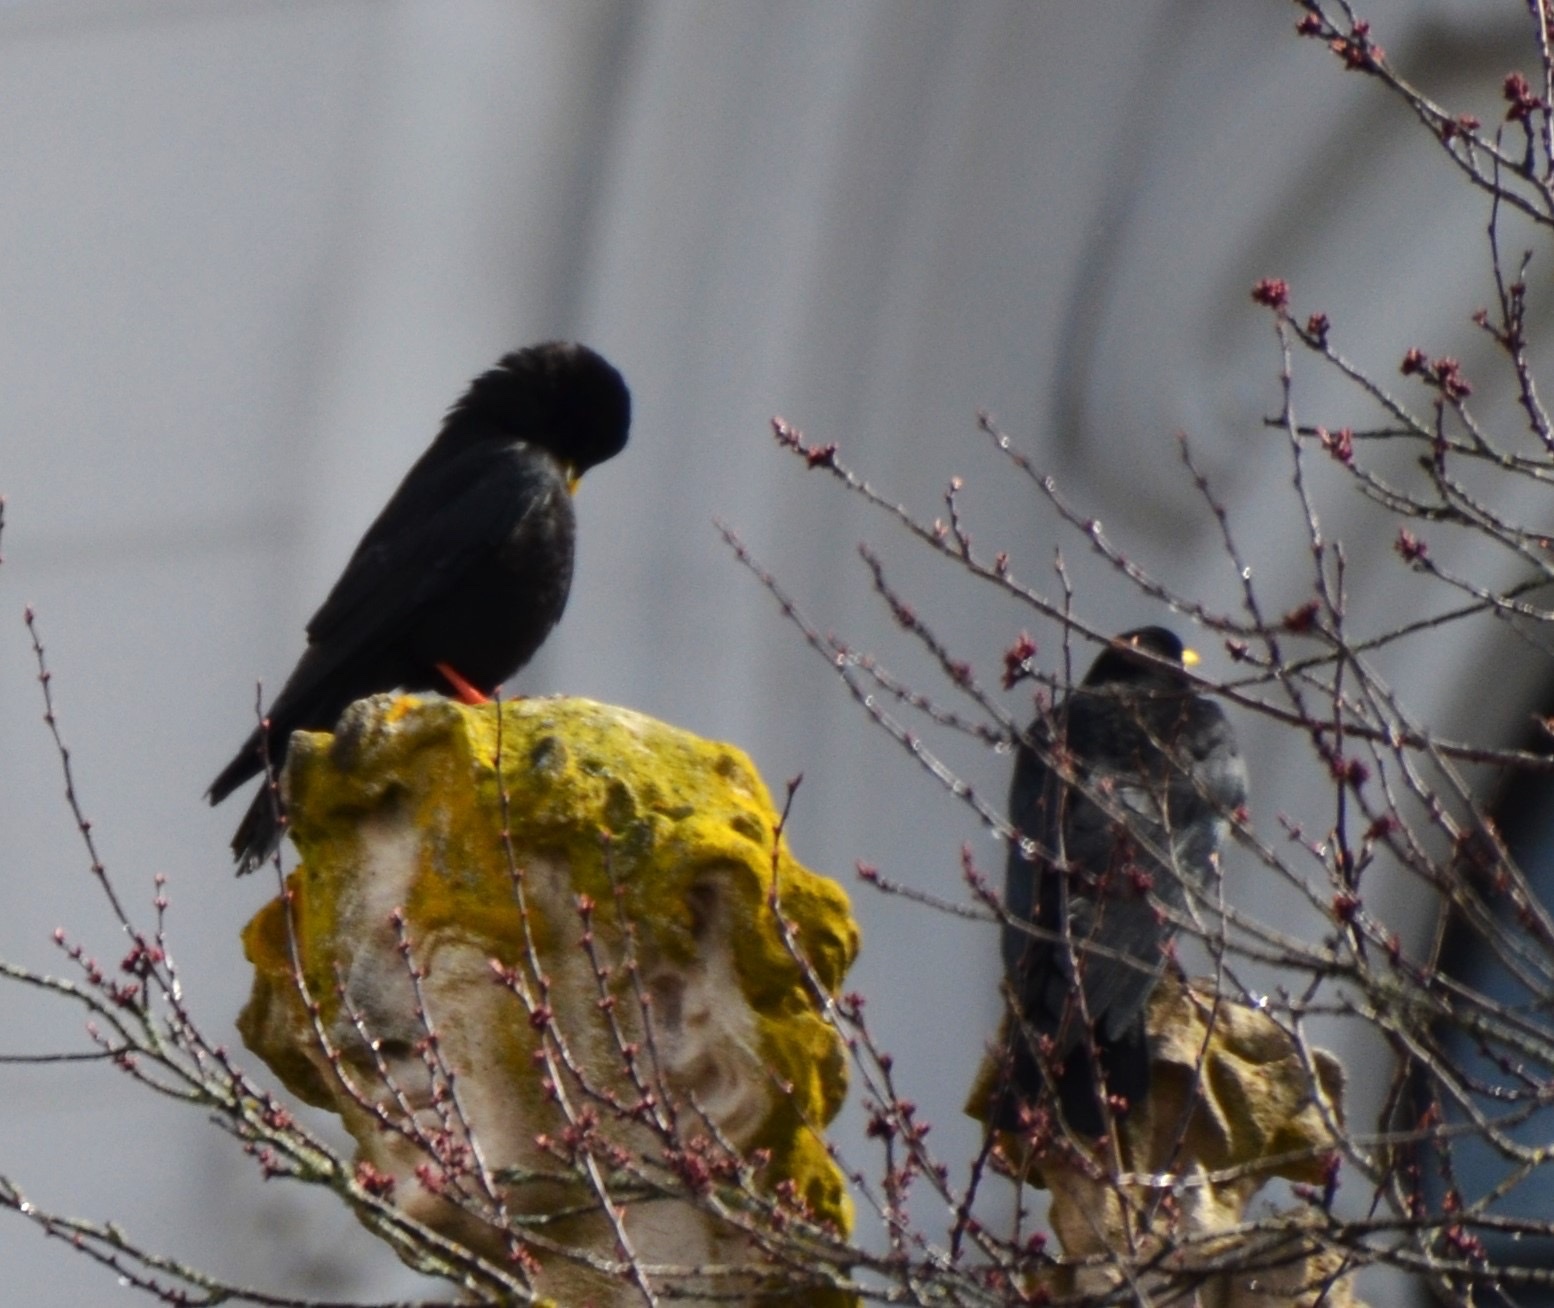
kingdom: Animalia
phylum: Chordata
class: Aves
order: Passeriformes
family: Corvidae
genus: Pyrrhocorax
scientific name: Pyrrhocorax graculus
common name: Alpine chough
